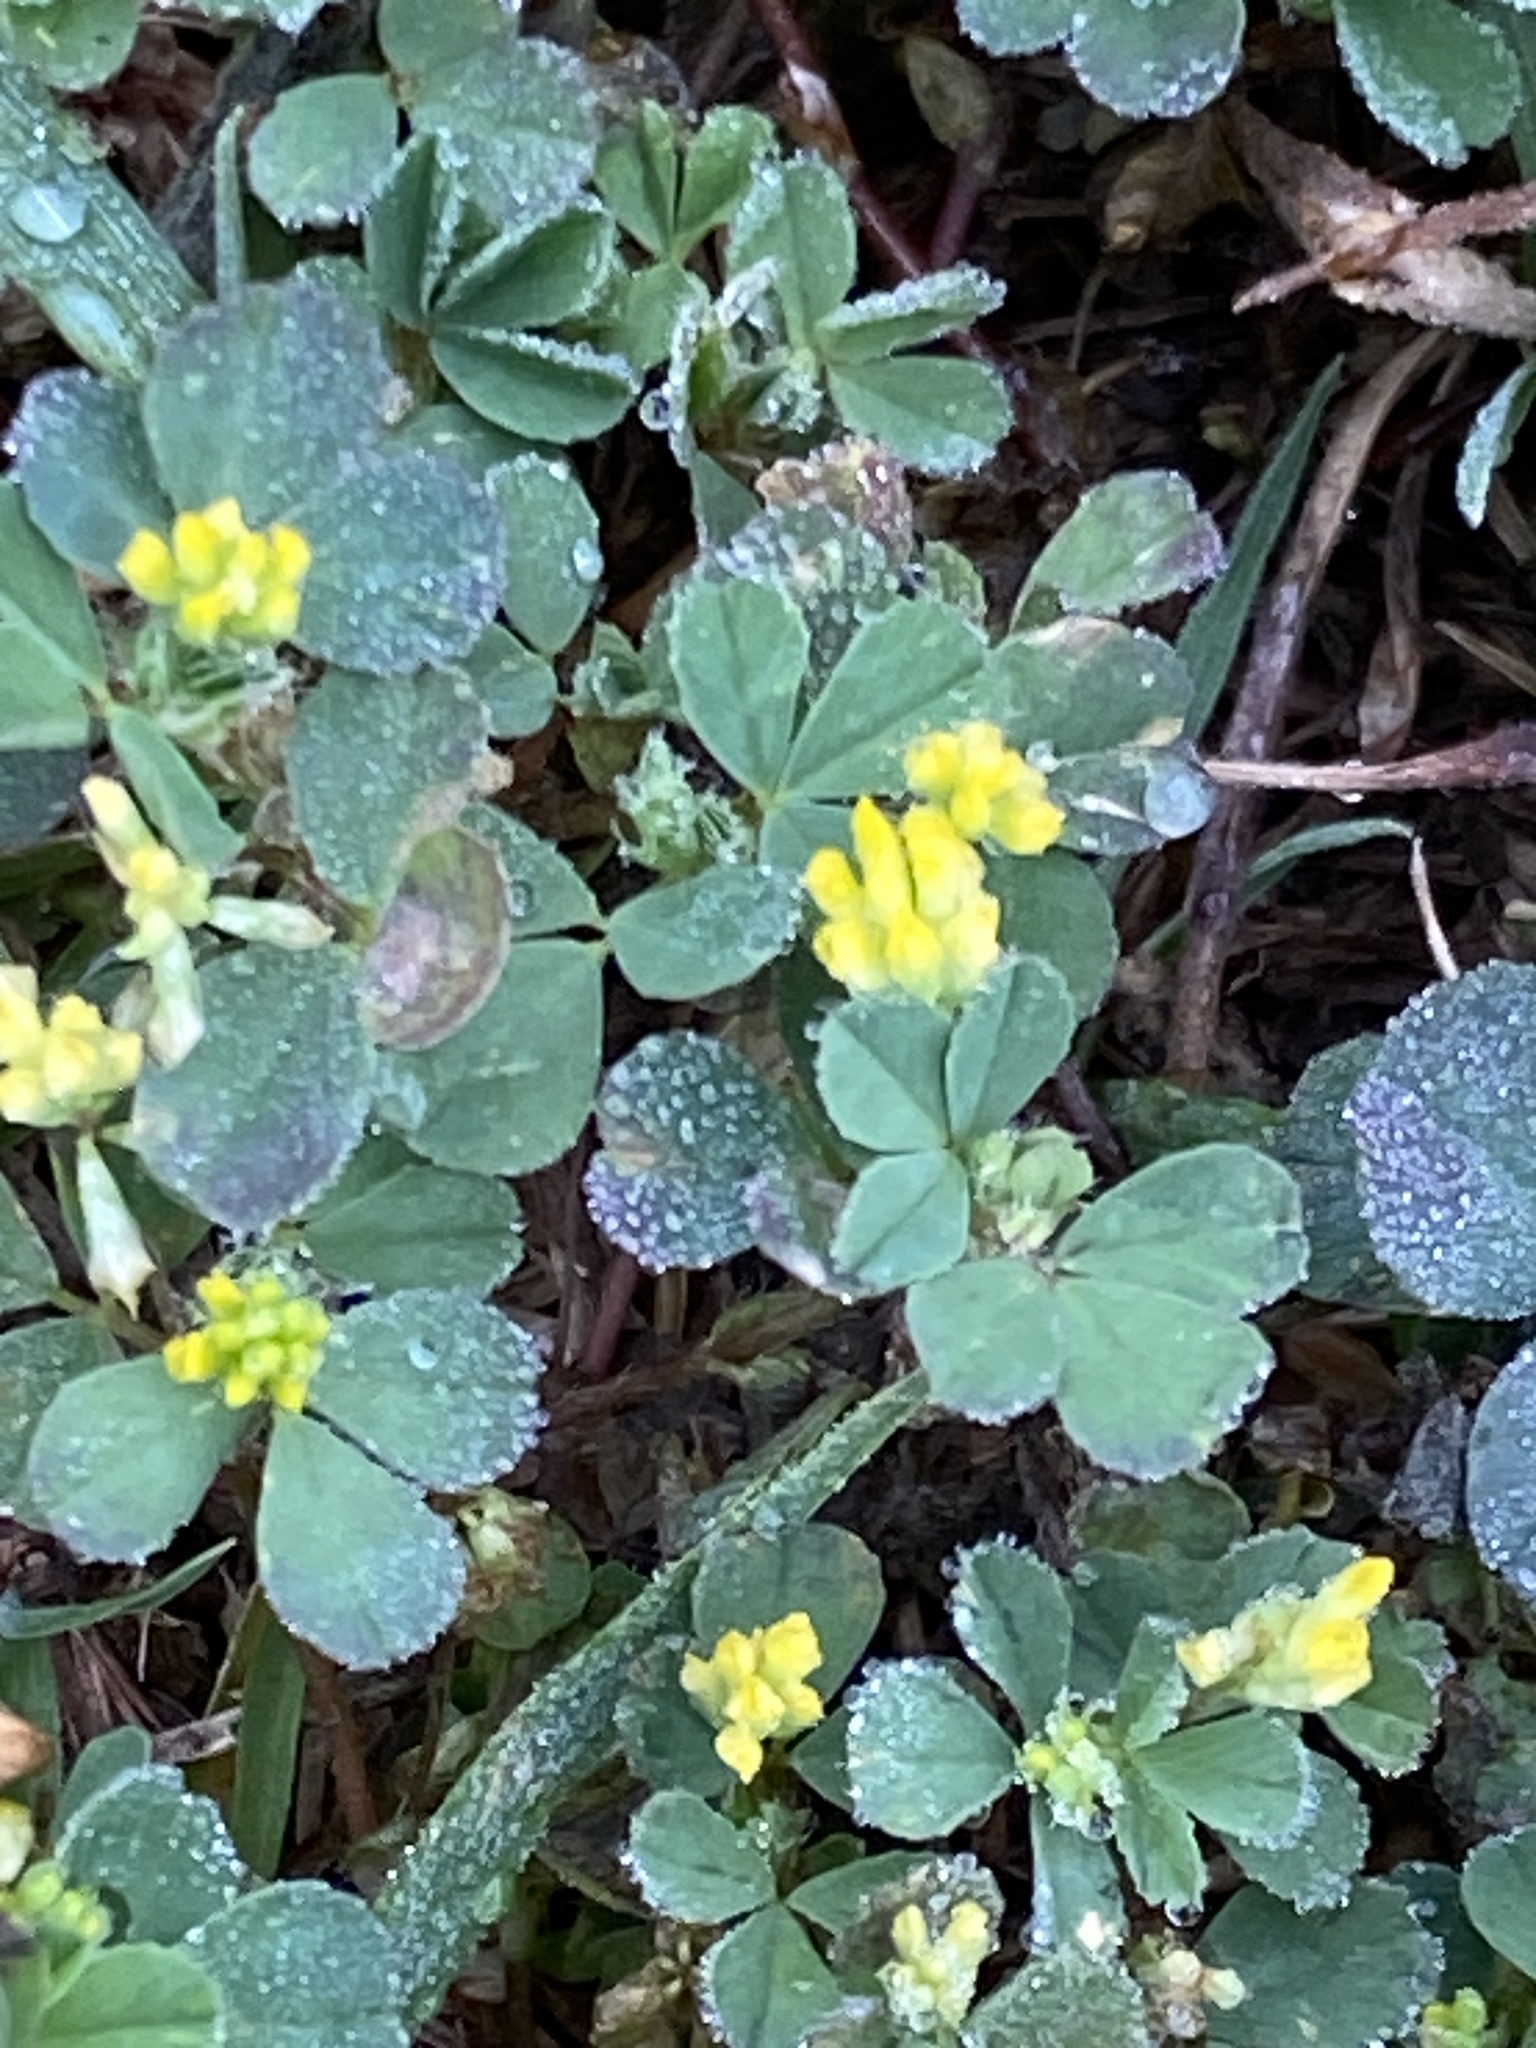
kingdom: Plantae
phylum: Tracheophyta
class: Magnoliopsida
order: Fabales
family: Fabaceae
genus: Trifolium
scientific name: Trifolium dubium
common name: Suckling clover
